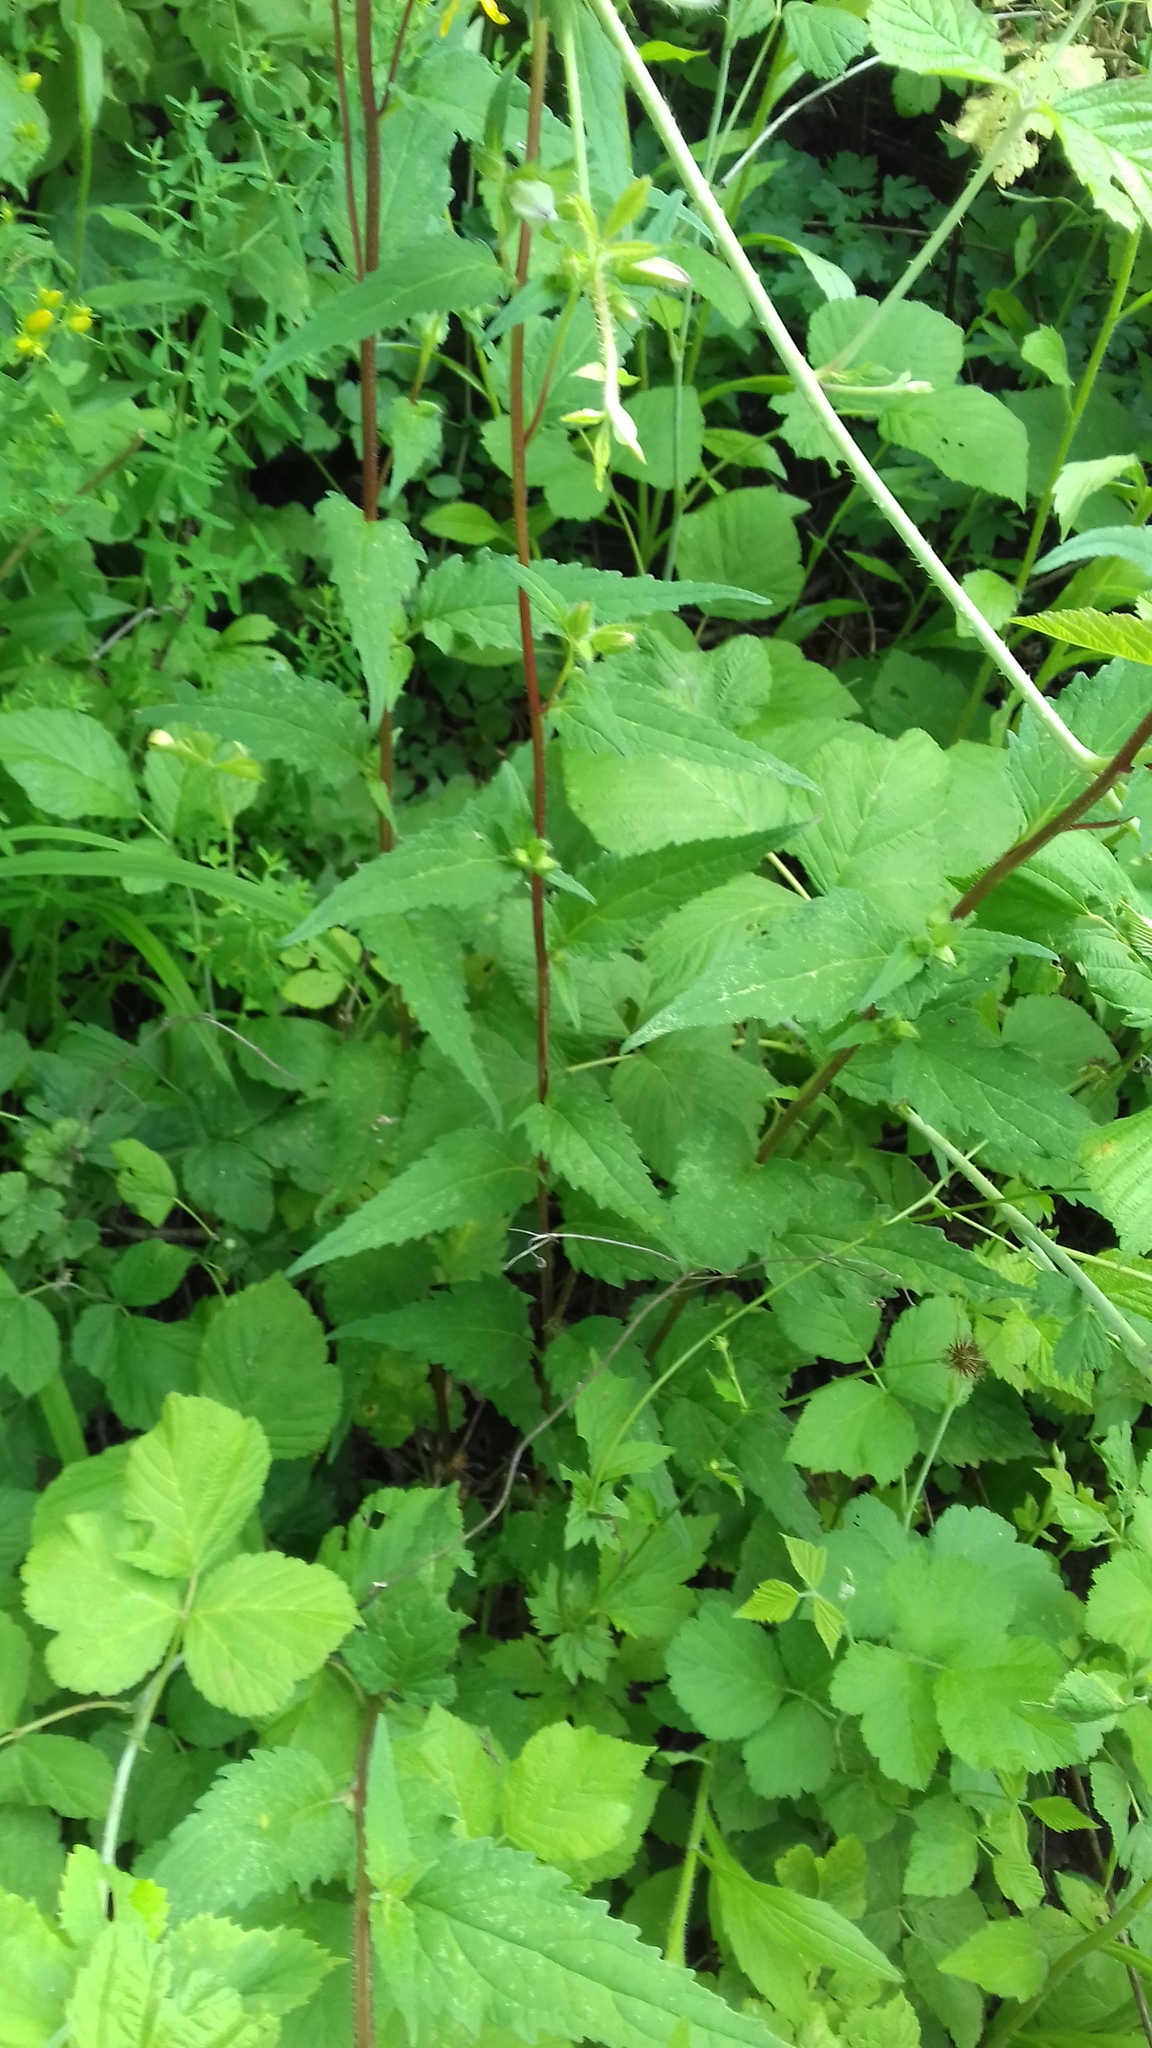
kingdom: Plantae
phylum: Tracheophyta
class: Magnoliopsida
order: Asterales
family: Campanulaceae
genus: Campanula
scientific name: Campanula trachelium
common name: Nettle-leaved bellflower
